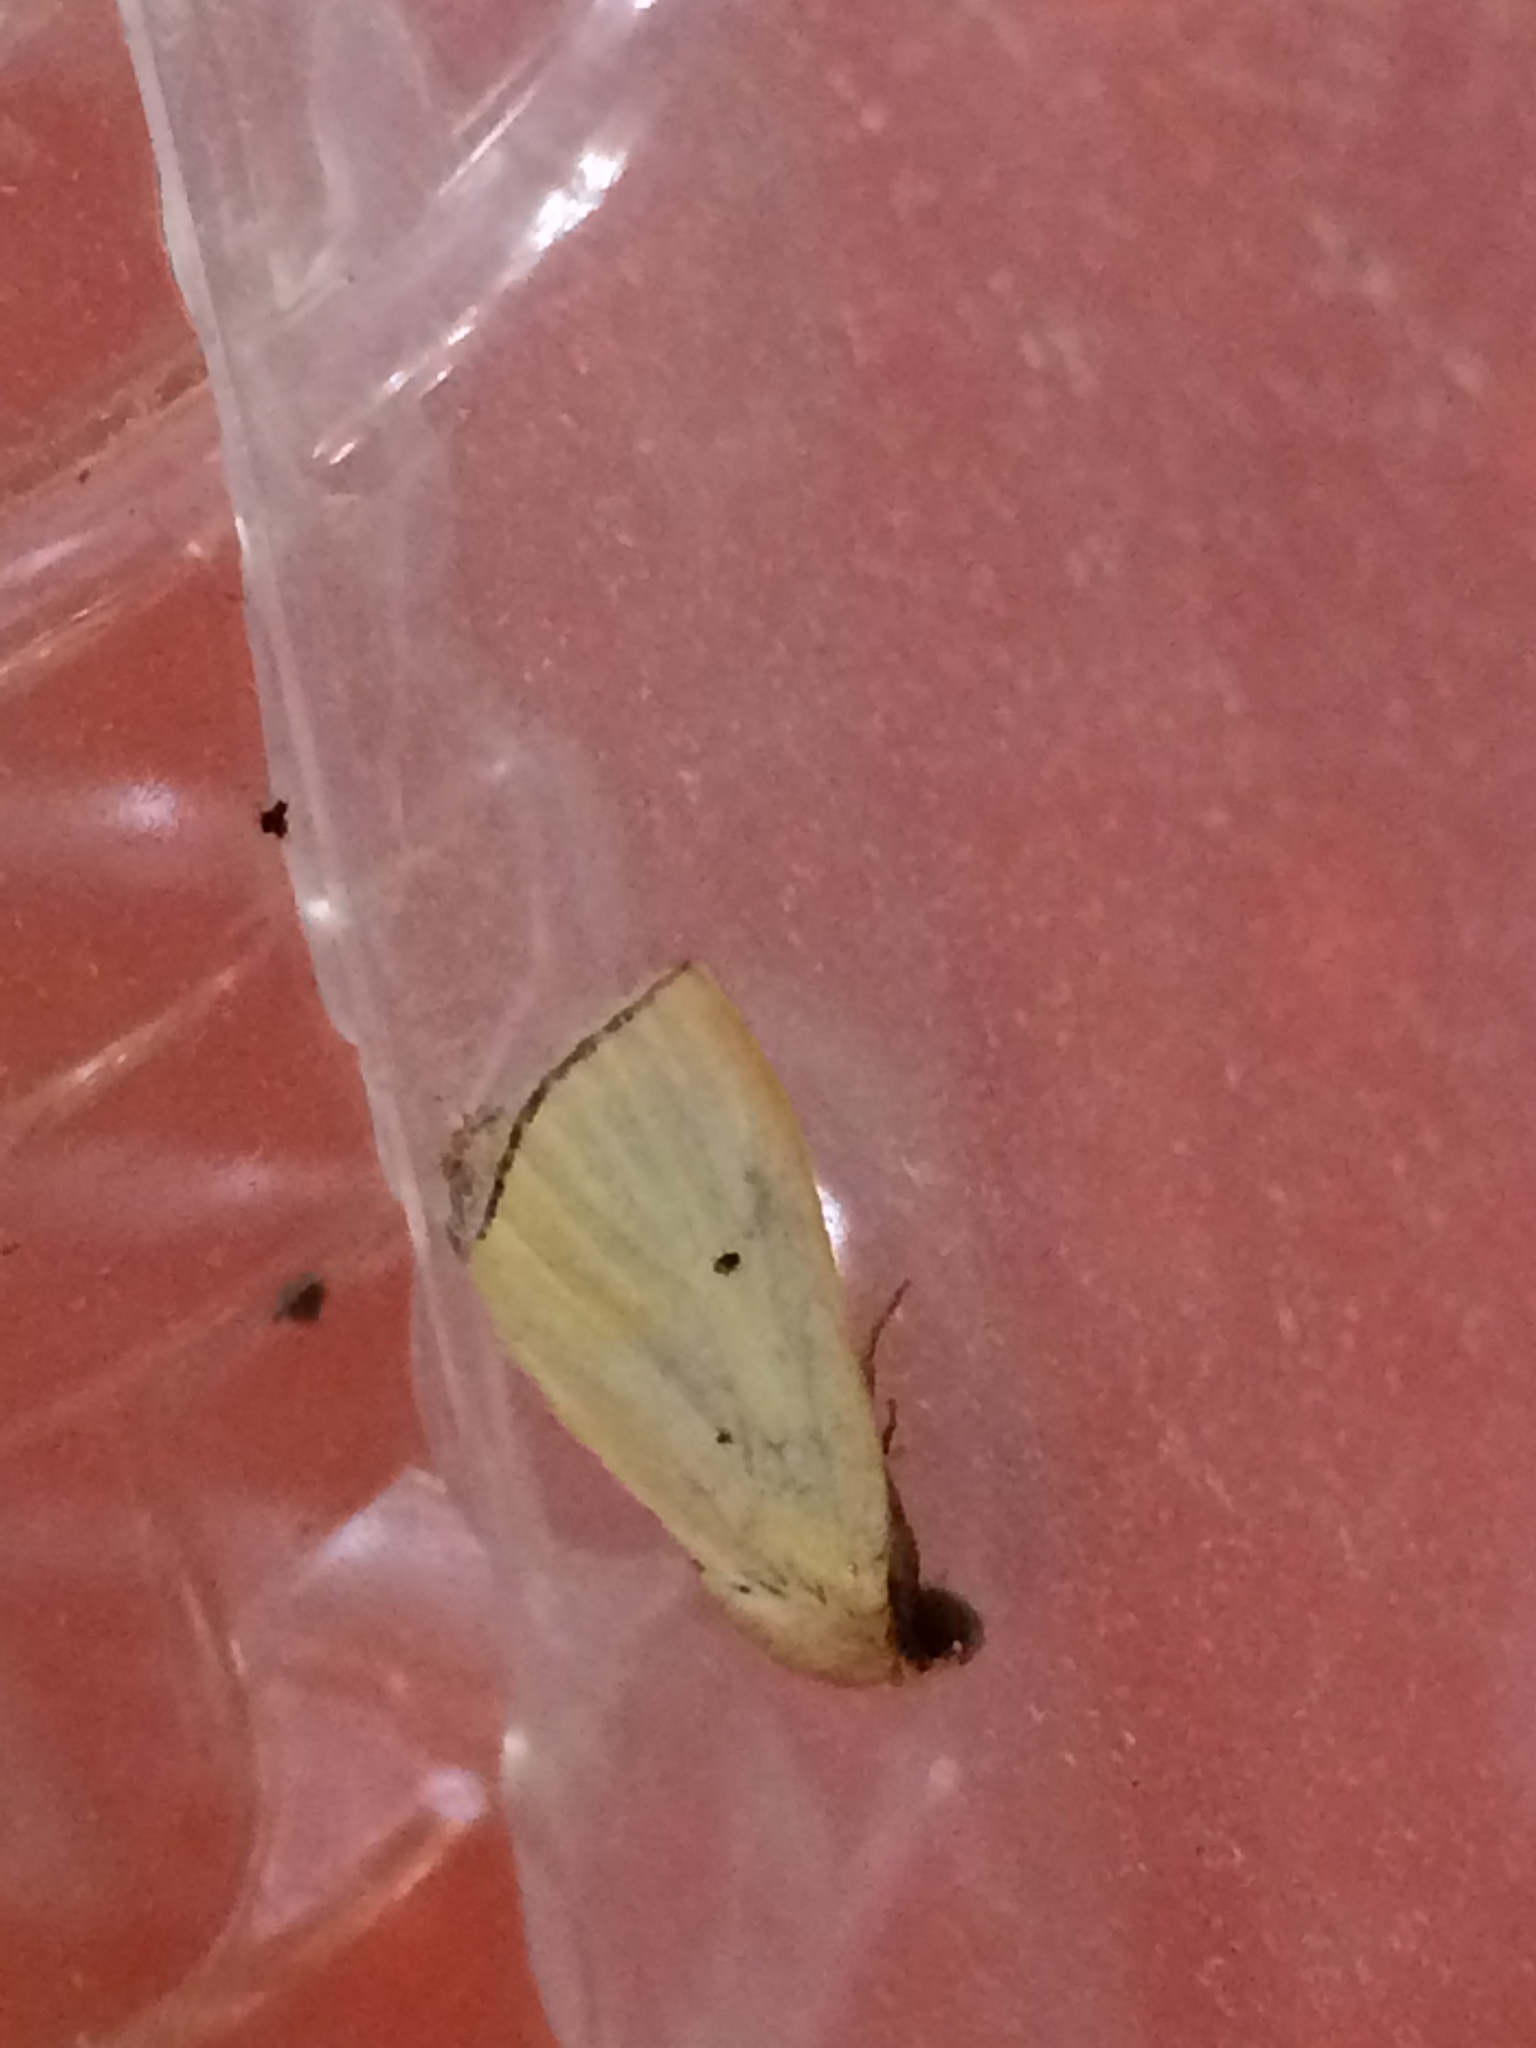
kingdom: Animalia
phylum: Arthropoda
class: Insecta
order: Lepidoptera
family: Noctuidae
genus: Marimatha
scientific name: Marimatha nigrofimbria
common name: Black-bordered lemon moth
